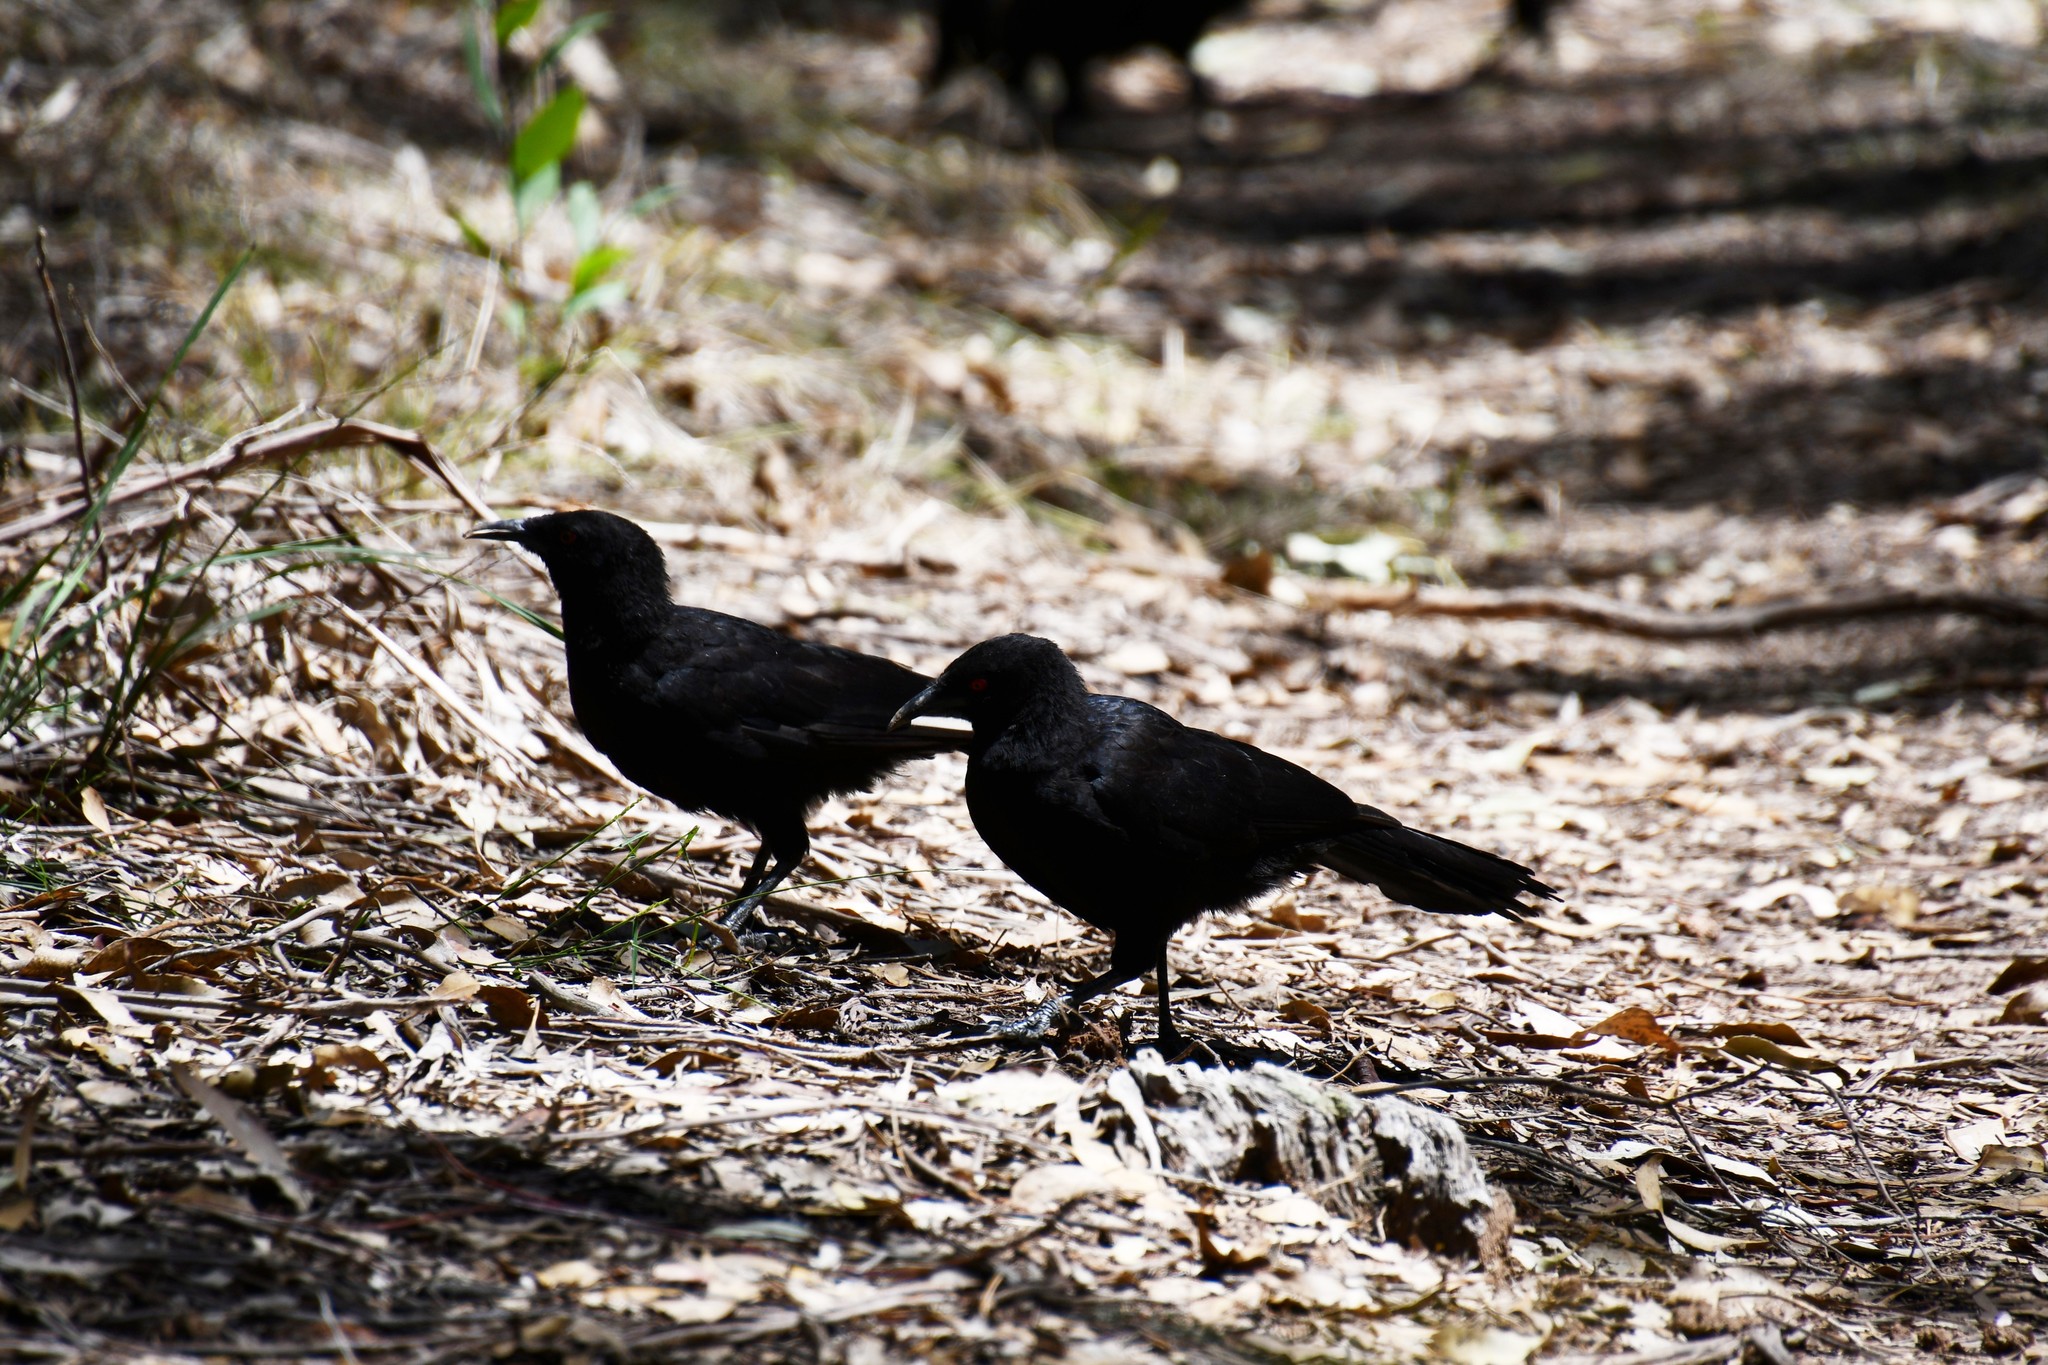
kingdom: Animalia
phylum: Chordata
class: Aves
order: Passeriformes
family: Corcoracidae
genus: Corcorax
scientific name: Corcorax melanoramphos
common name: White-winged chough
